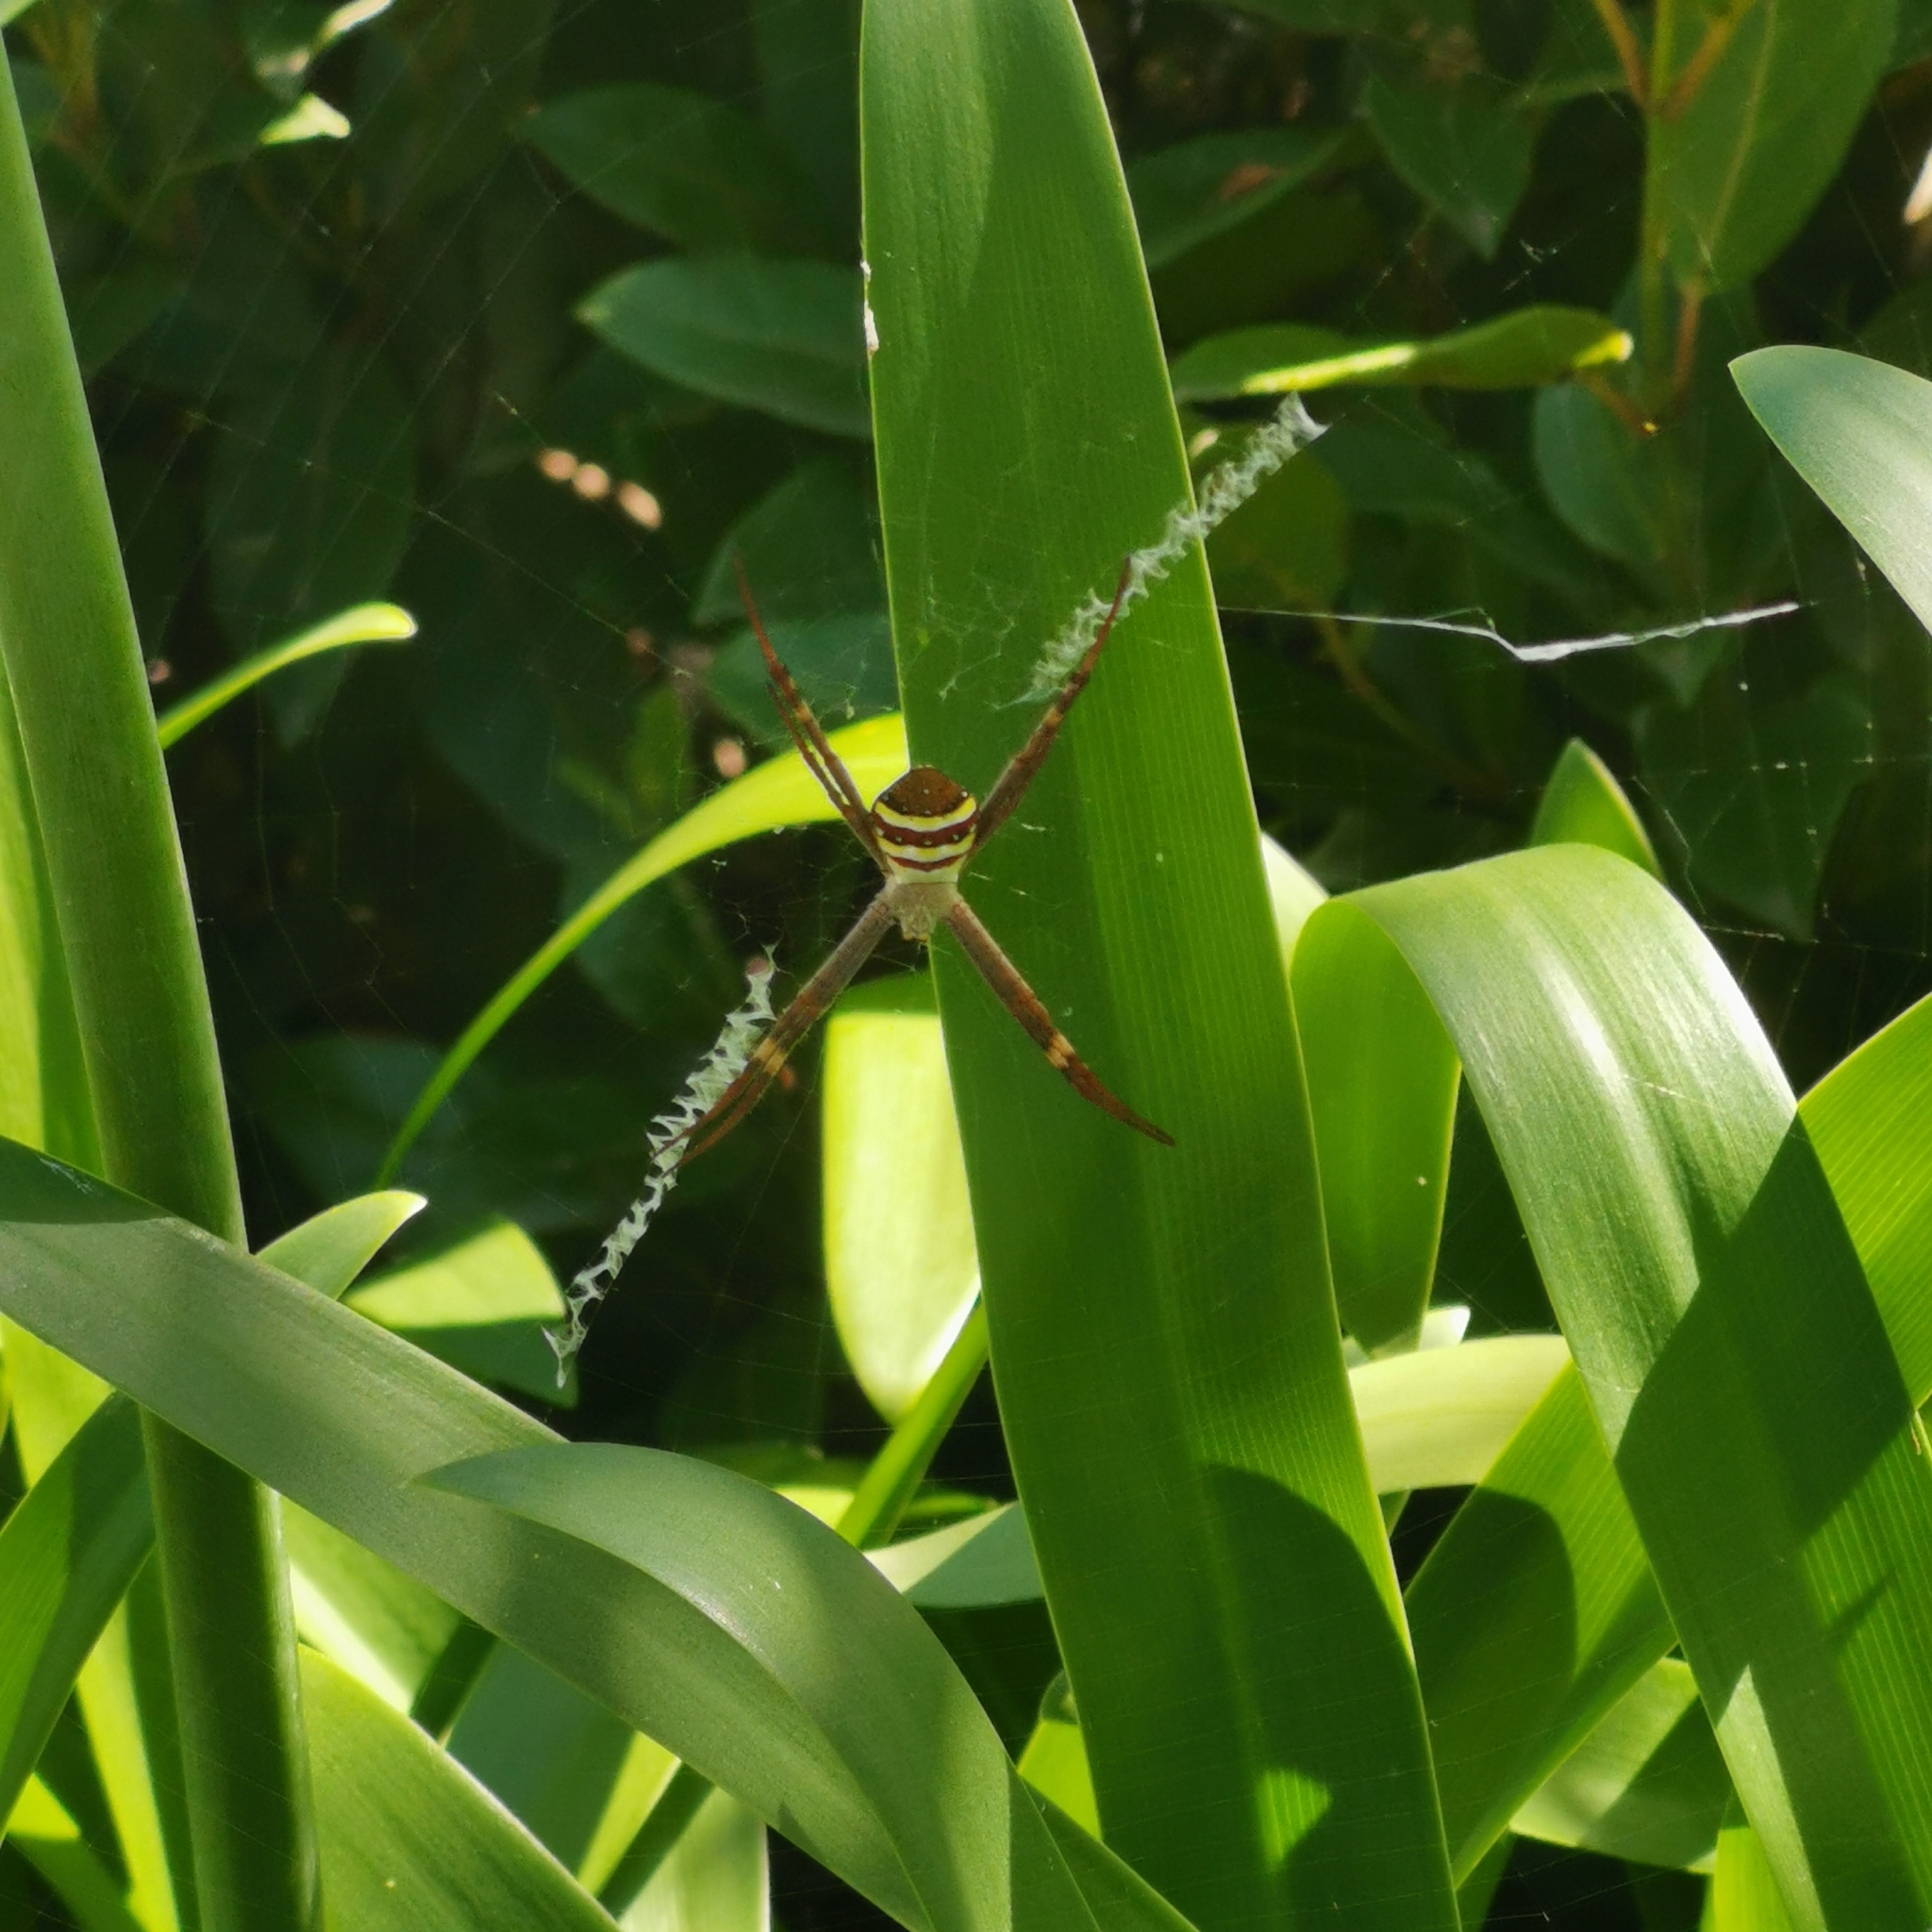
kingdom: Animalia
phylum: Arthropoda
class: Arachnida
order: Araneae
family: Araneidae
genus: Argiope
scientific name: Argiope keyserlingi
